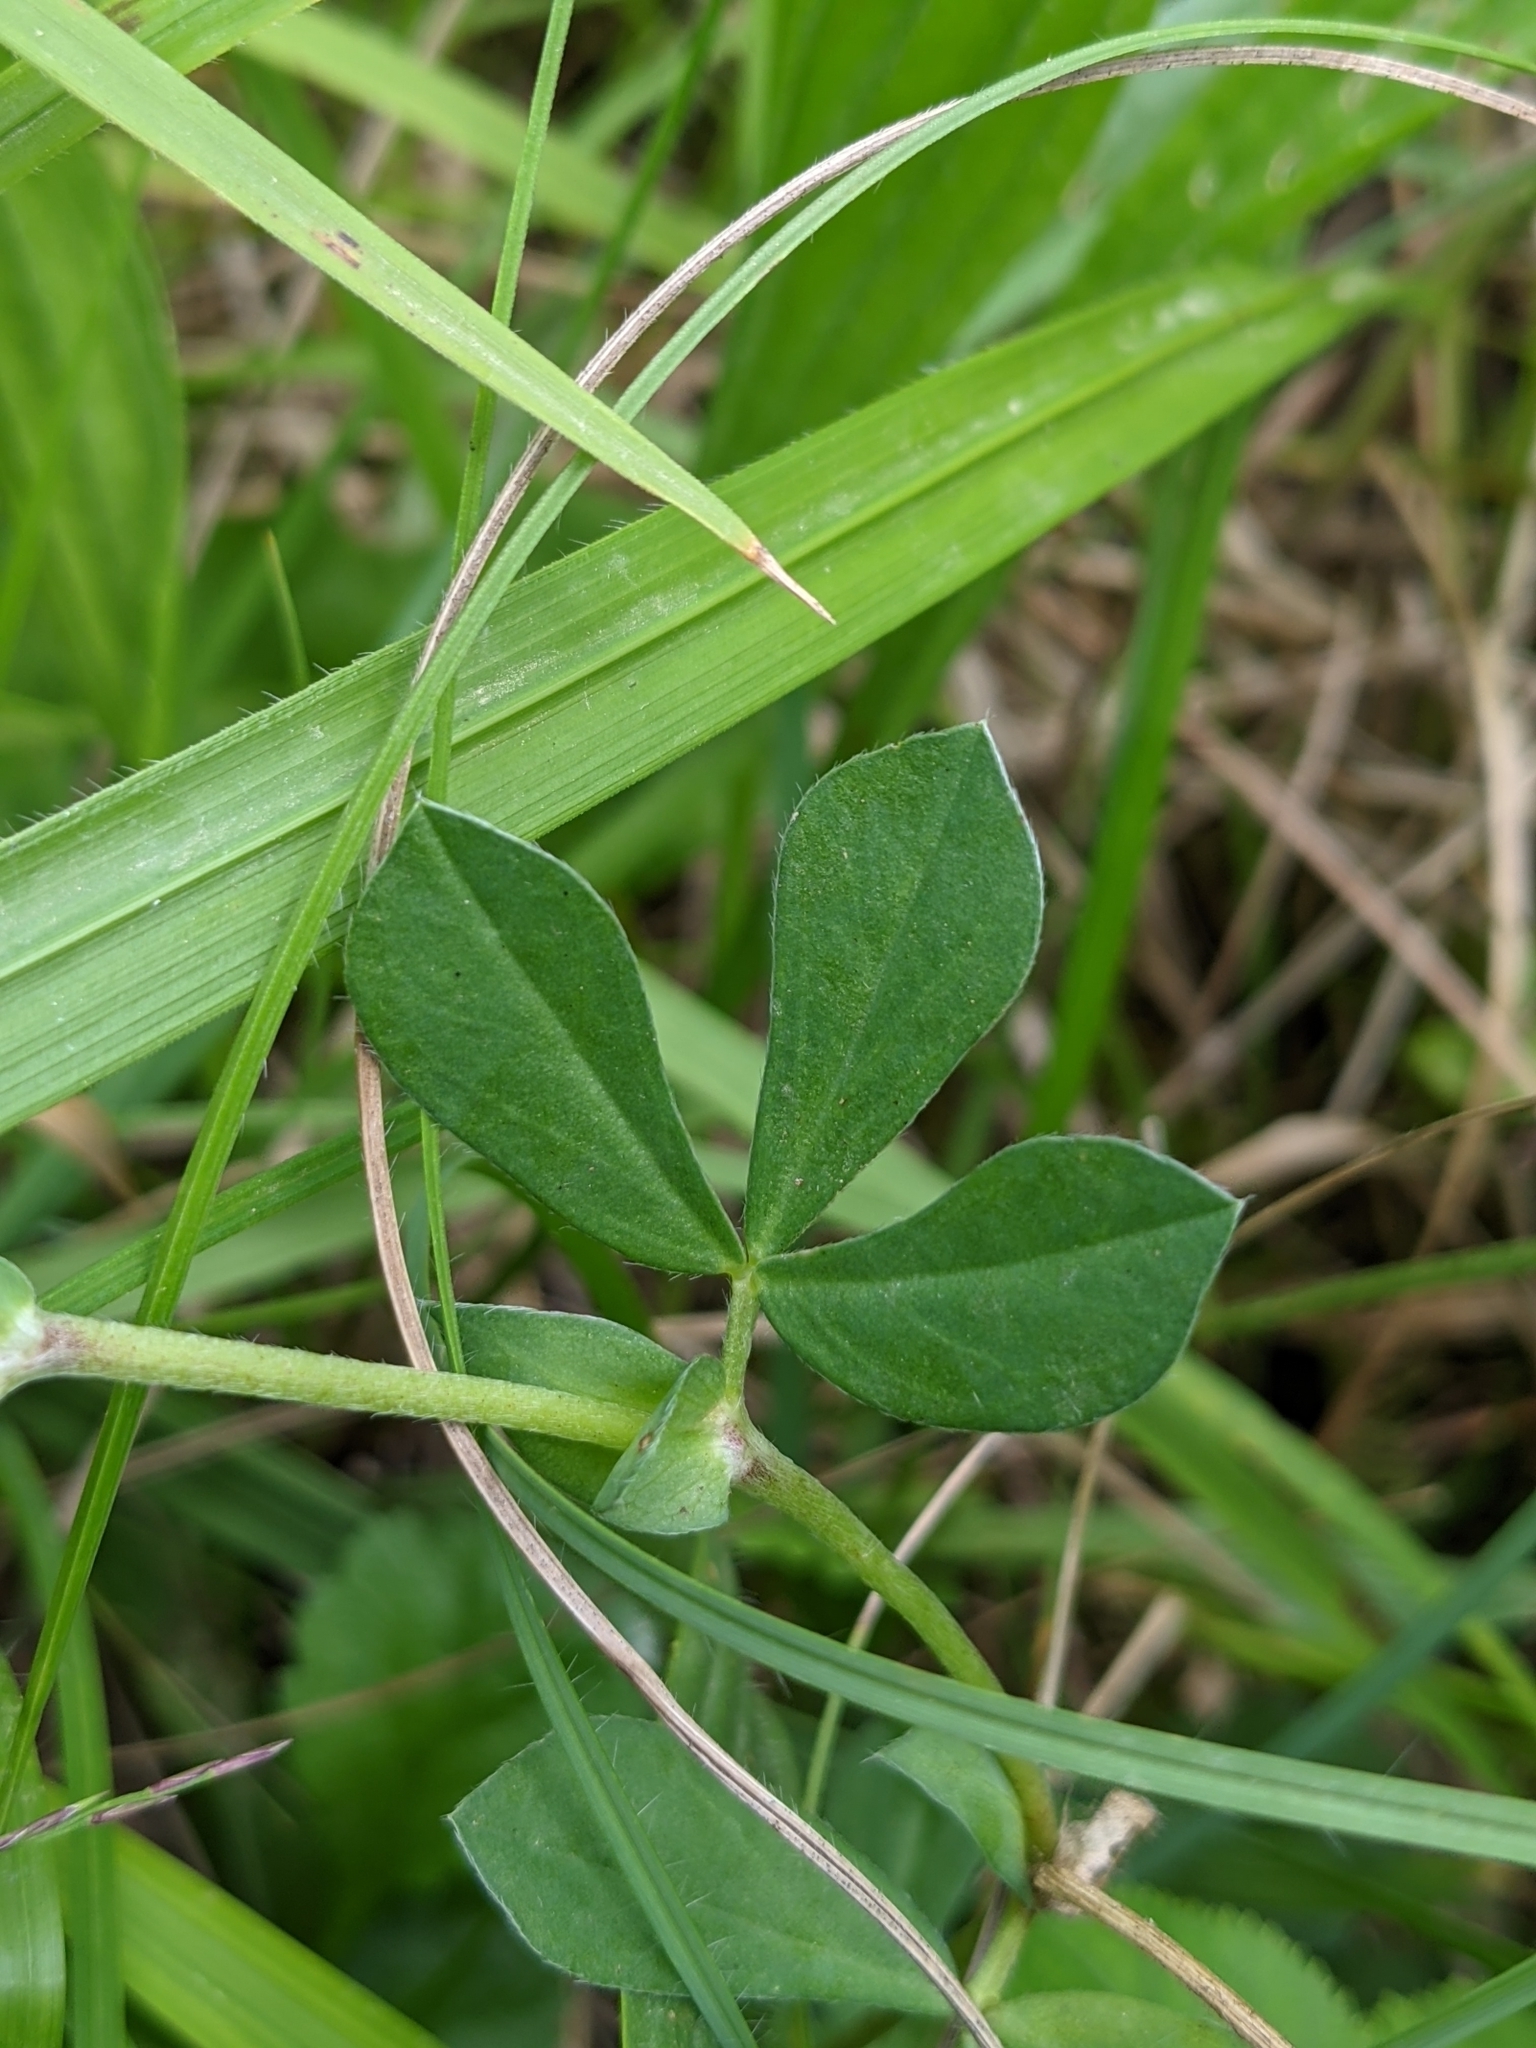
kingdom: Plantae
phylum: Tracheophyta
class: Magnoliopsida
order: Fabales
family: Fabaceae
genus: Lotus
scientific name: Lotus maritimus
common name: Dragon's-teeth
